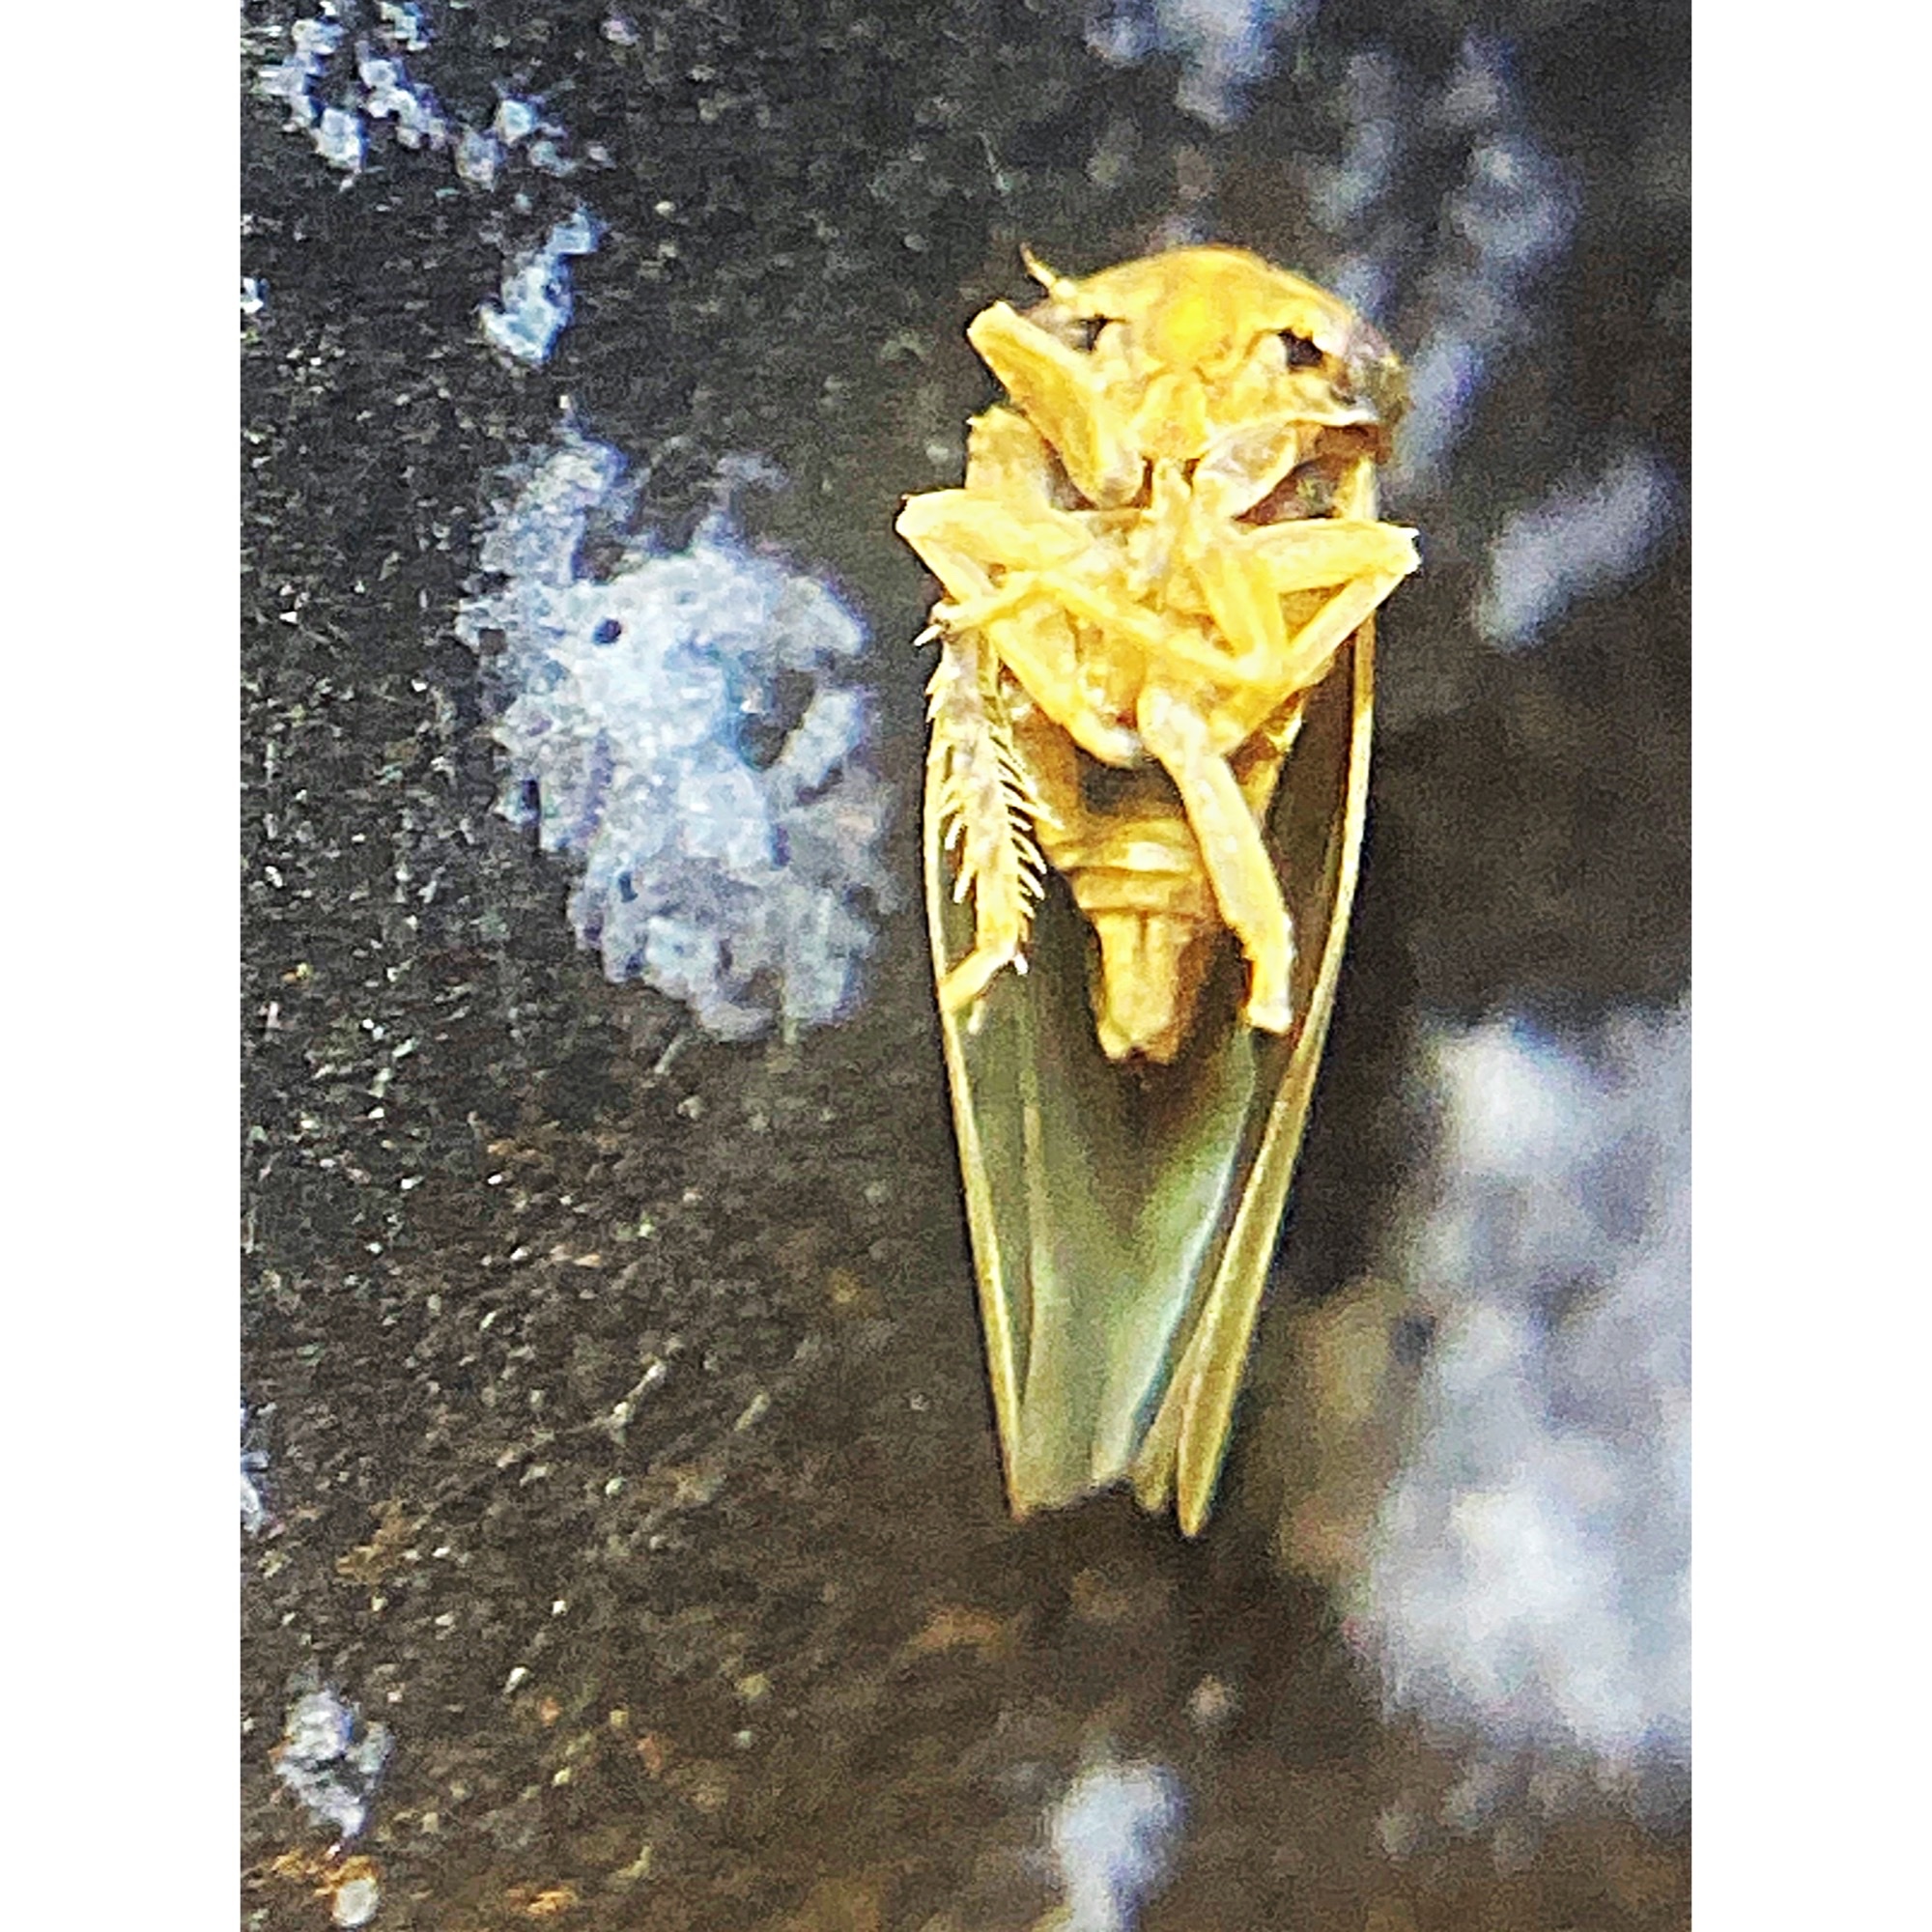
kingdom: Animalia
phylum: Arthropoda
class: Insecta
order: Hemiptera
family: Cicadellidae
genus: Agallia
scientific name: Agallia constricta
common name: The constricted leafhopper
